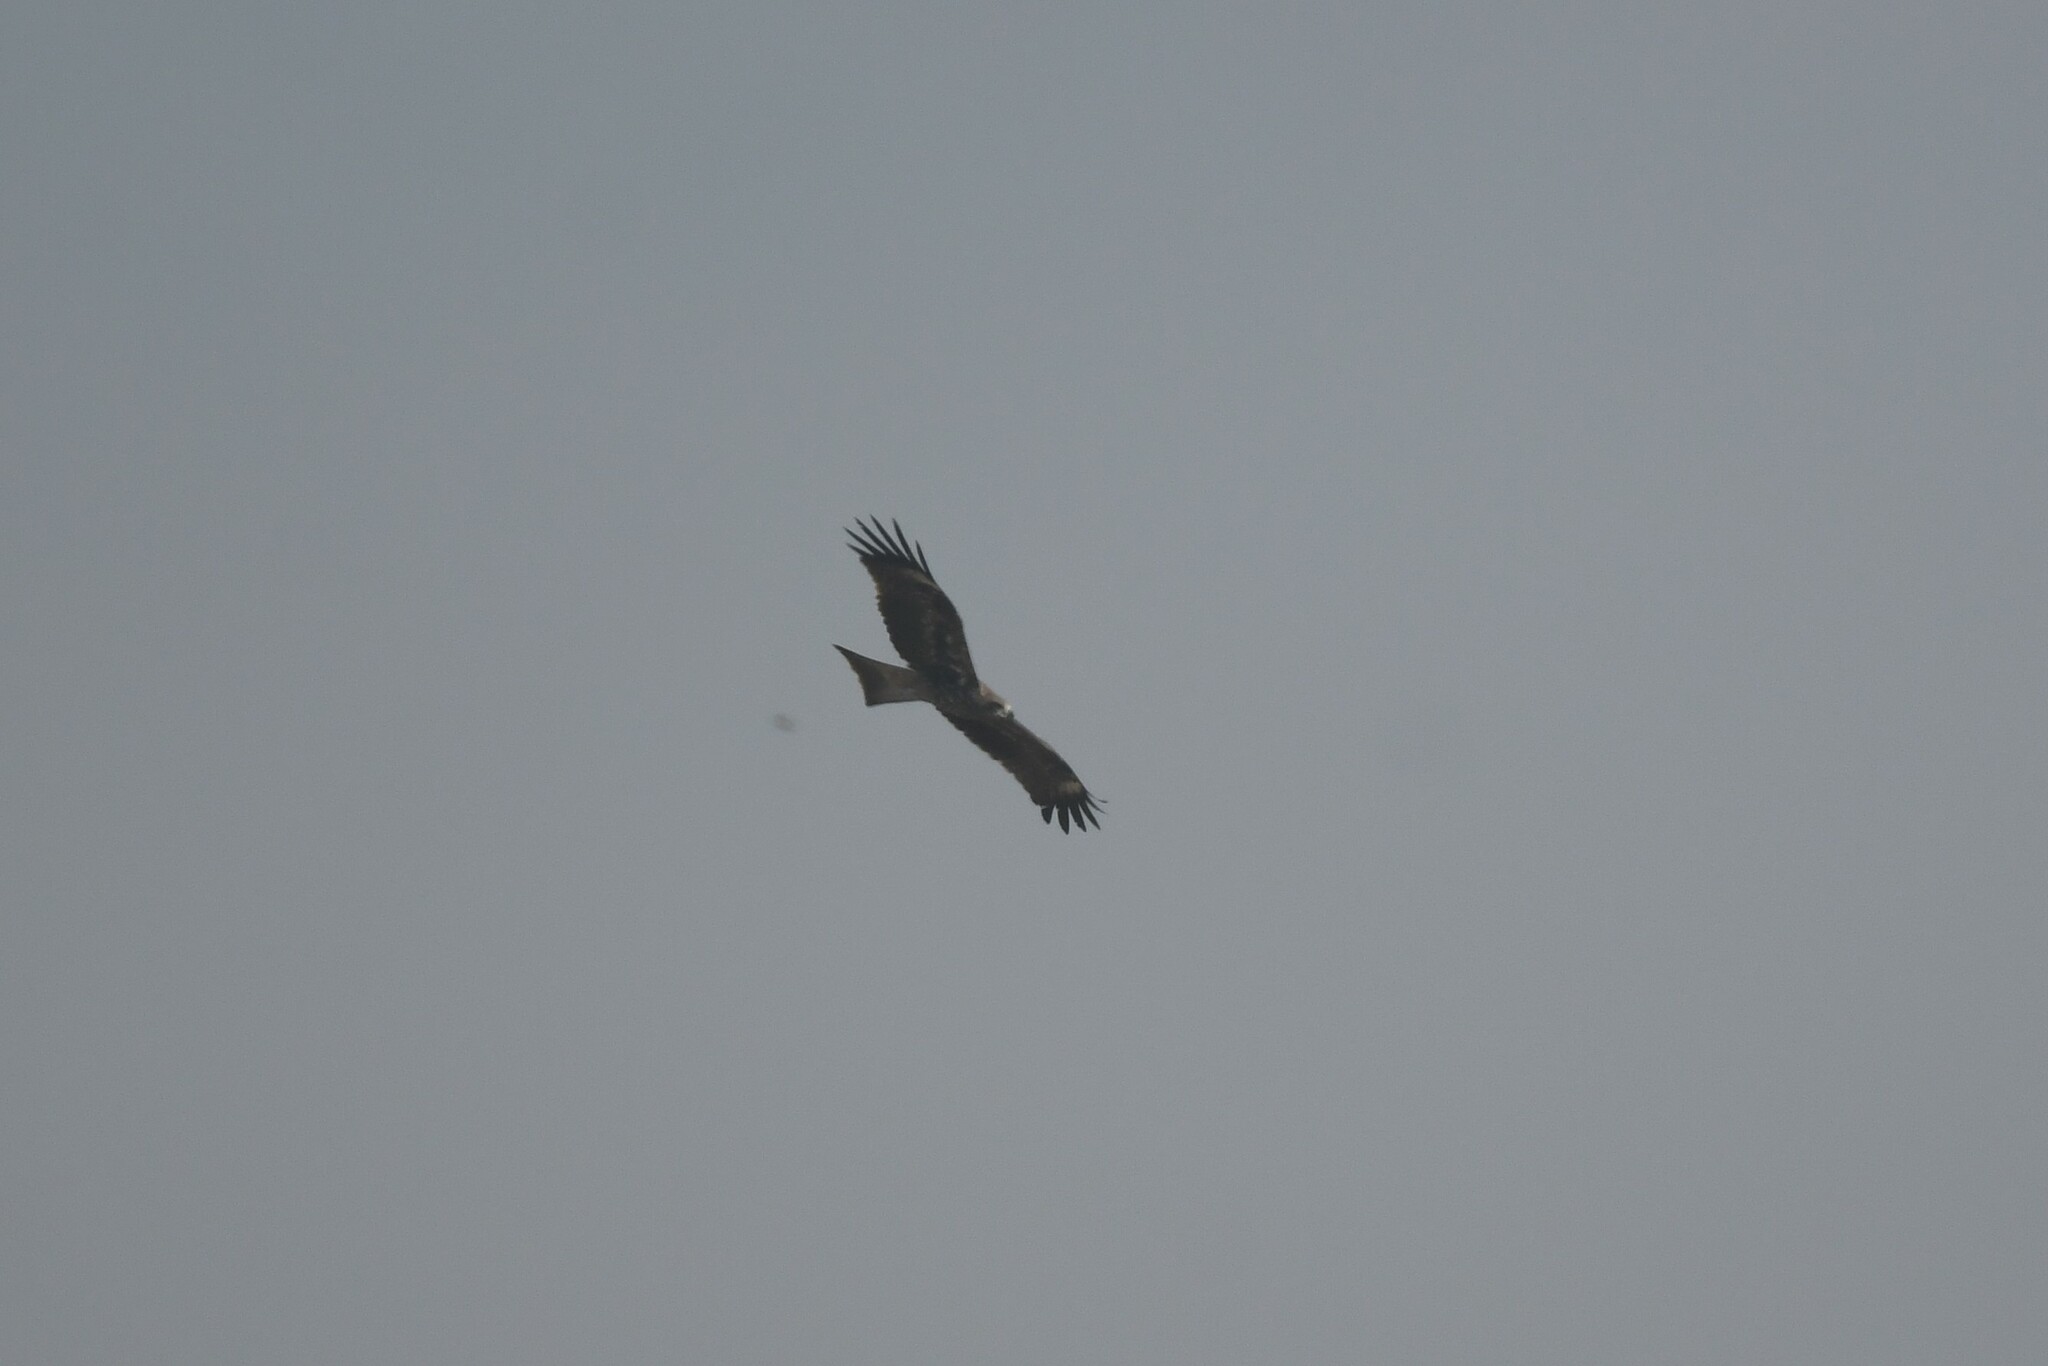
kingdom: Animalia
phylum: Chordata
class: Aves
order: Accipitriformes
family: Accipitridae
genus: Milvus
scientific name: Milvus migrans
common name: Black kite
